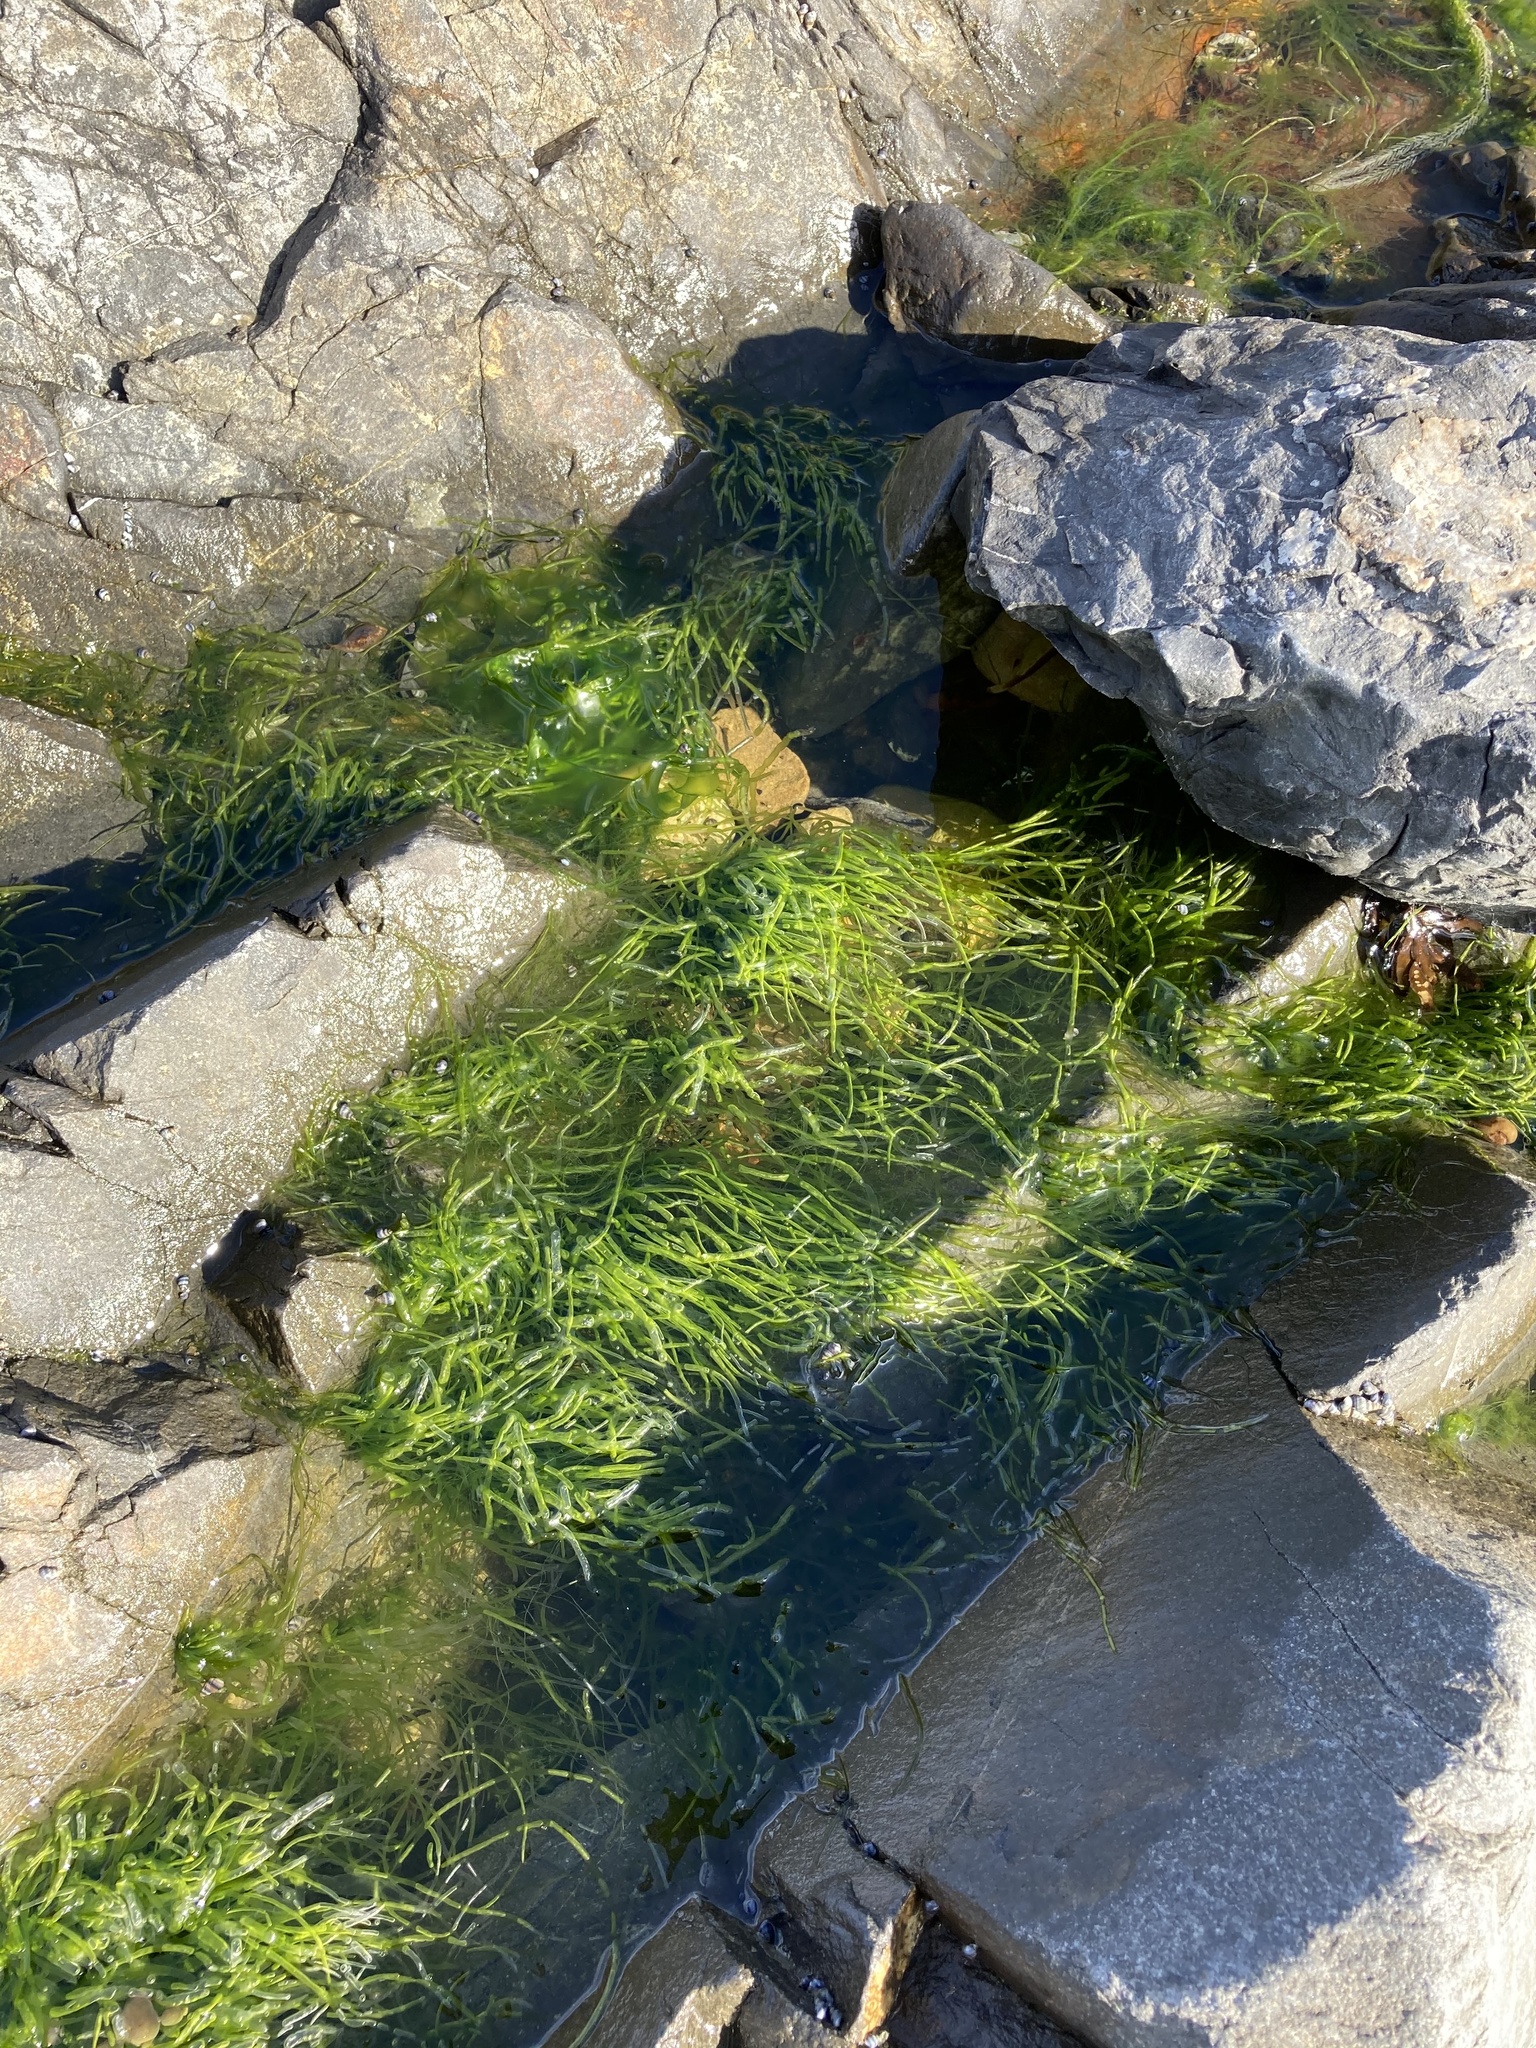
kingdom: Plantae
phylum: Chlorophyta
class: Ulvophyceae
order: Ulvales
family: Ulvaceae
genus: Ulva
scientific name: Ulva intestinalis
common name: Gut weed
